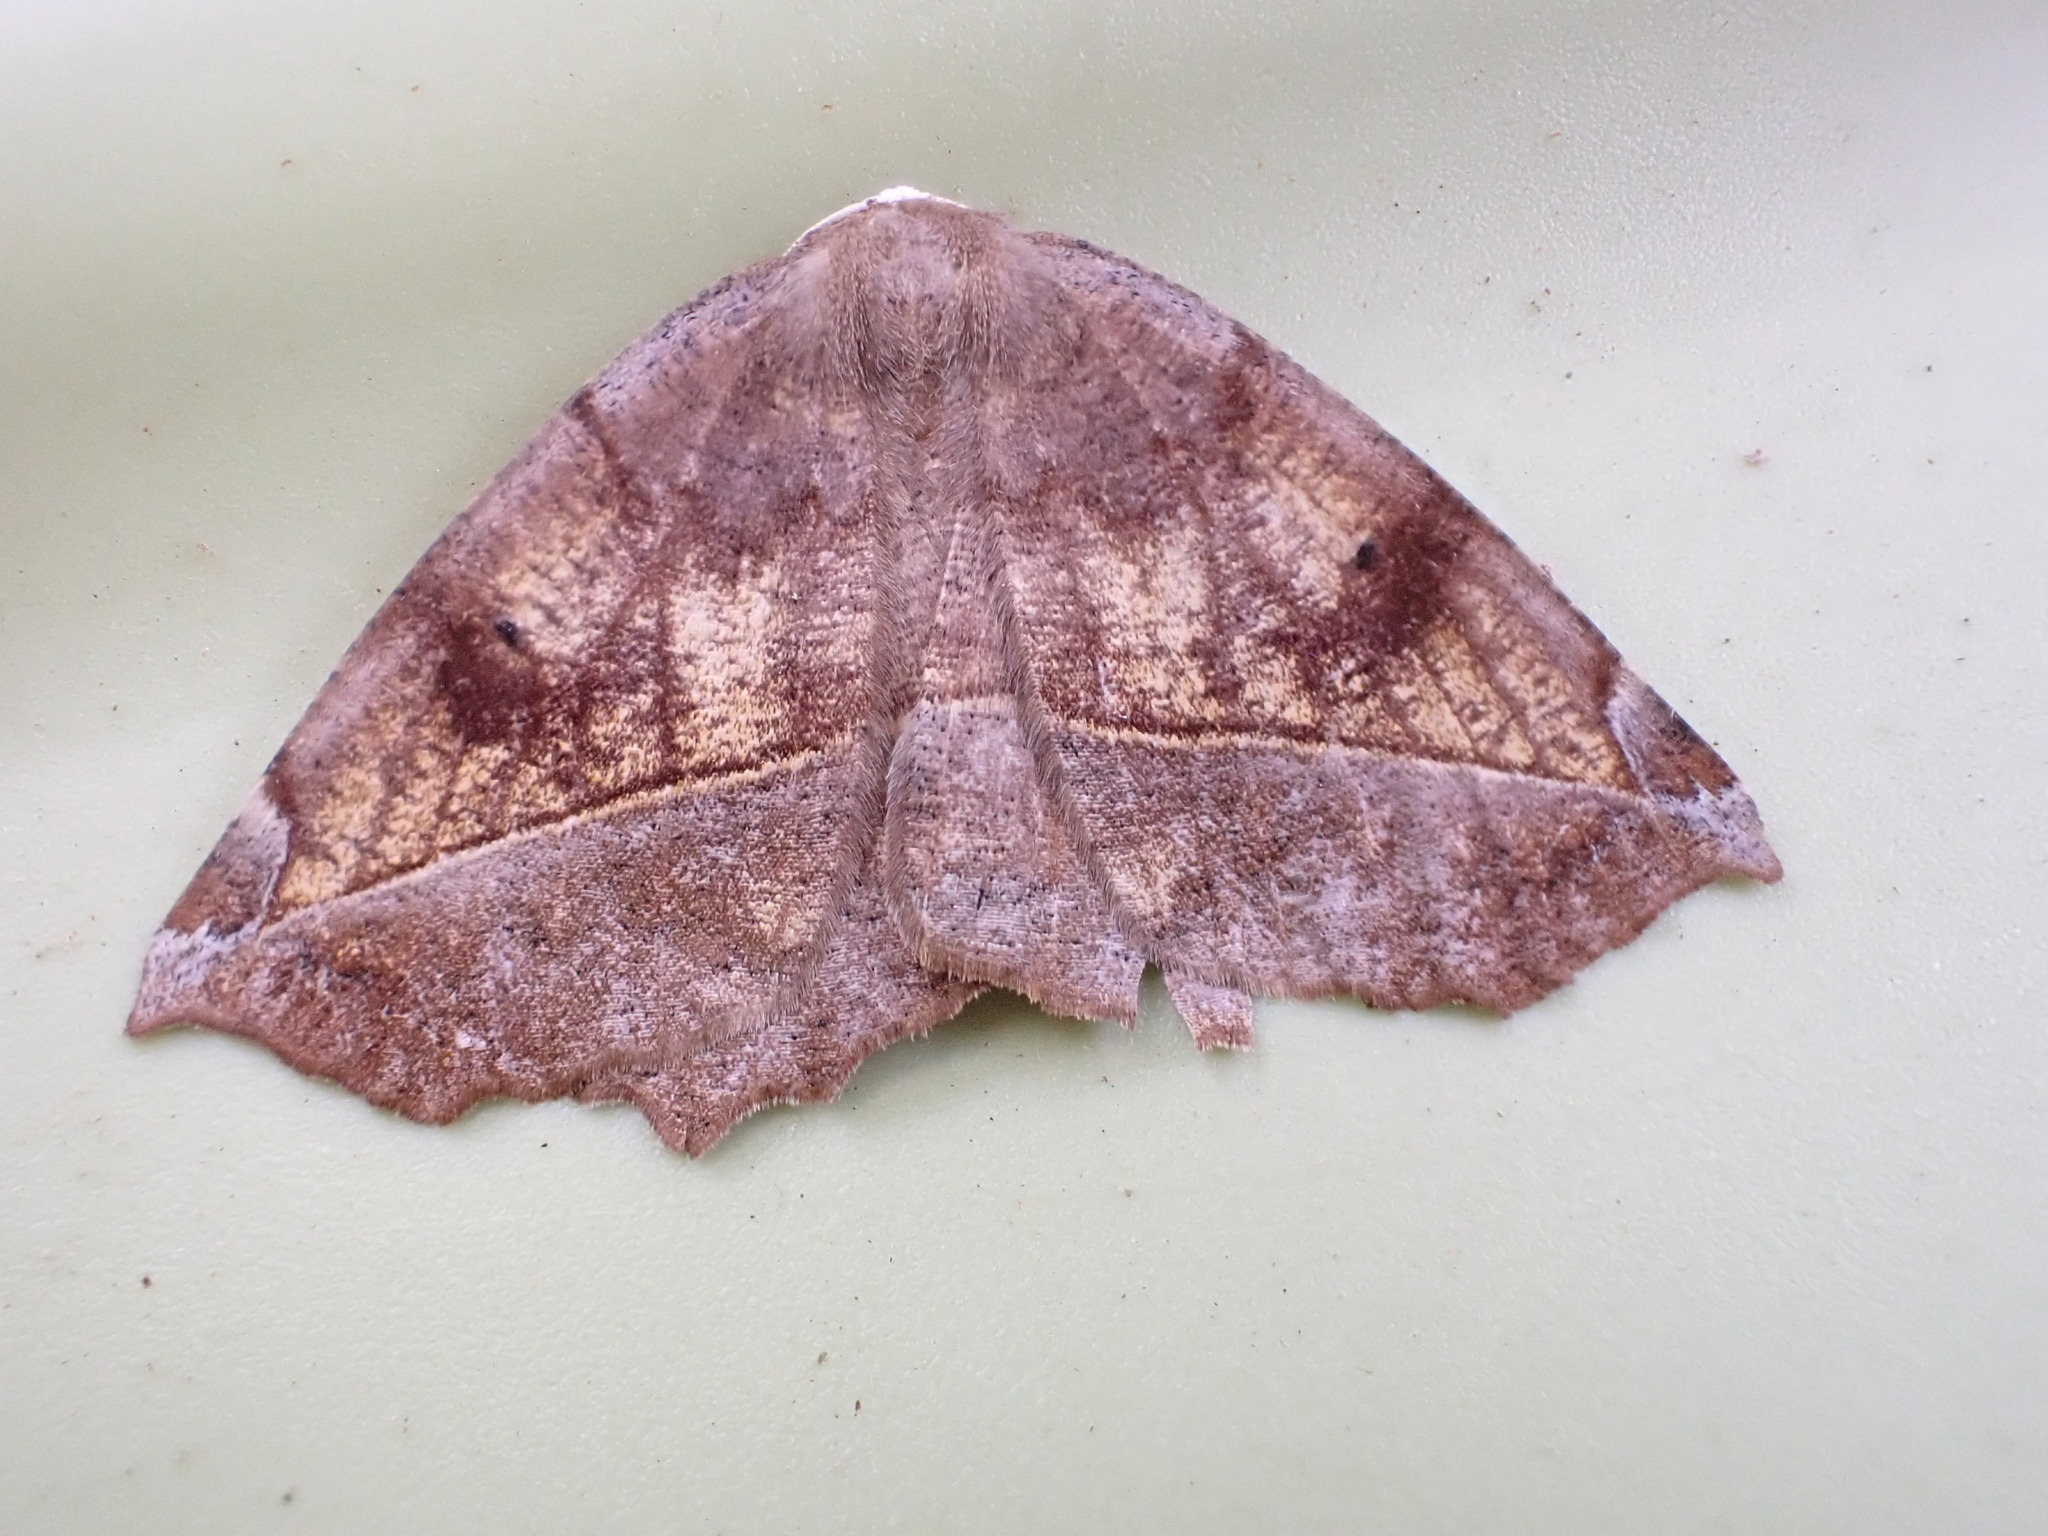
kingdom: Animalia
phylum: Arthropoda
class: Insecta
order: Lepidoptera
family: Geometridae
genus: Eutrapela
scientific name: Eutrapela clemataria
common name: Curved-toothed geometer
